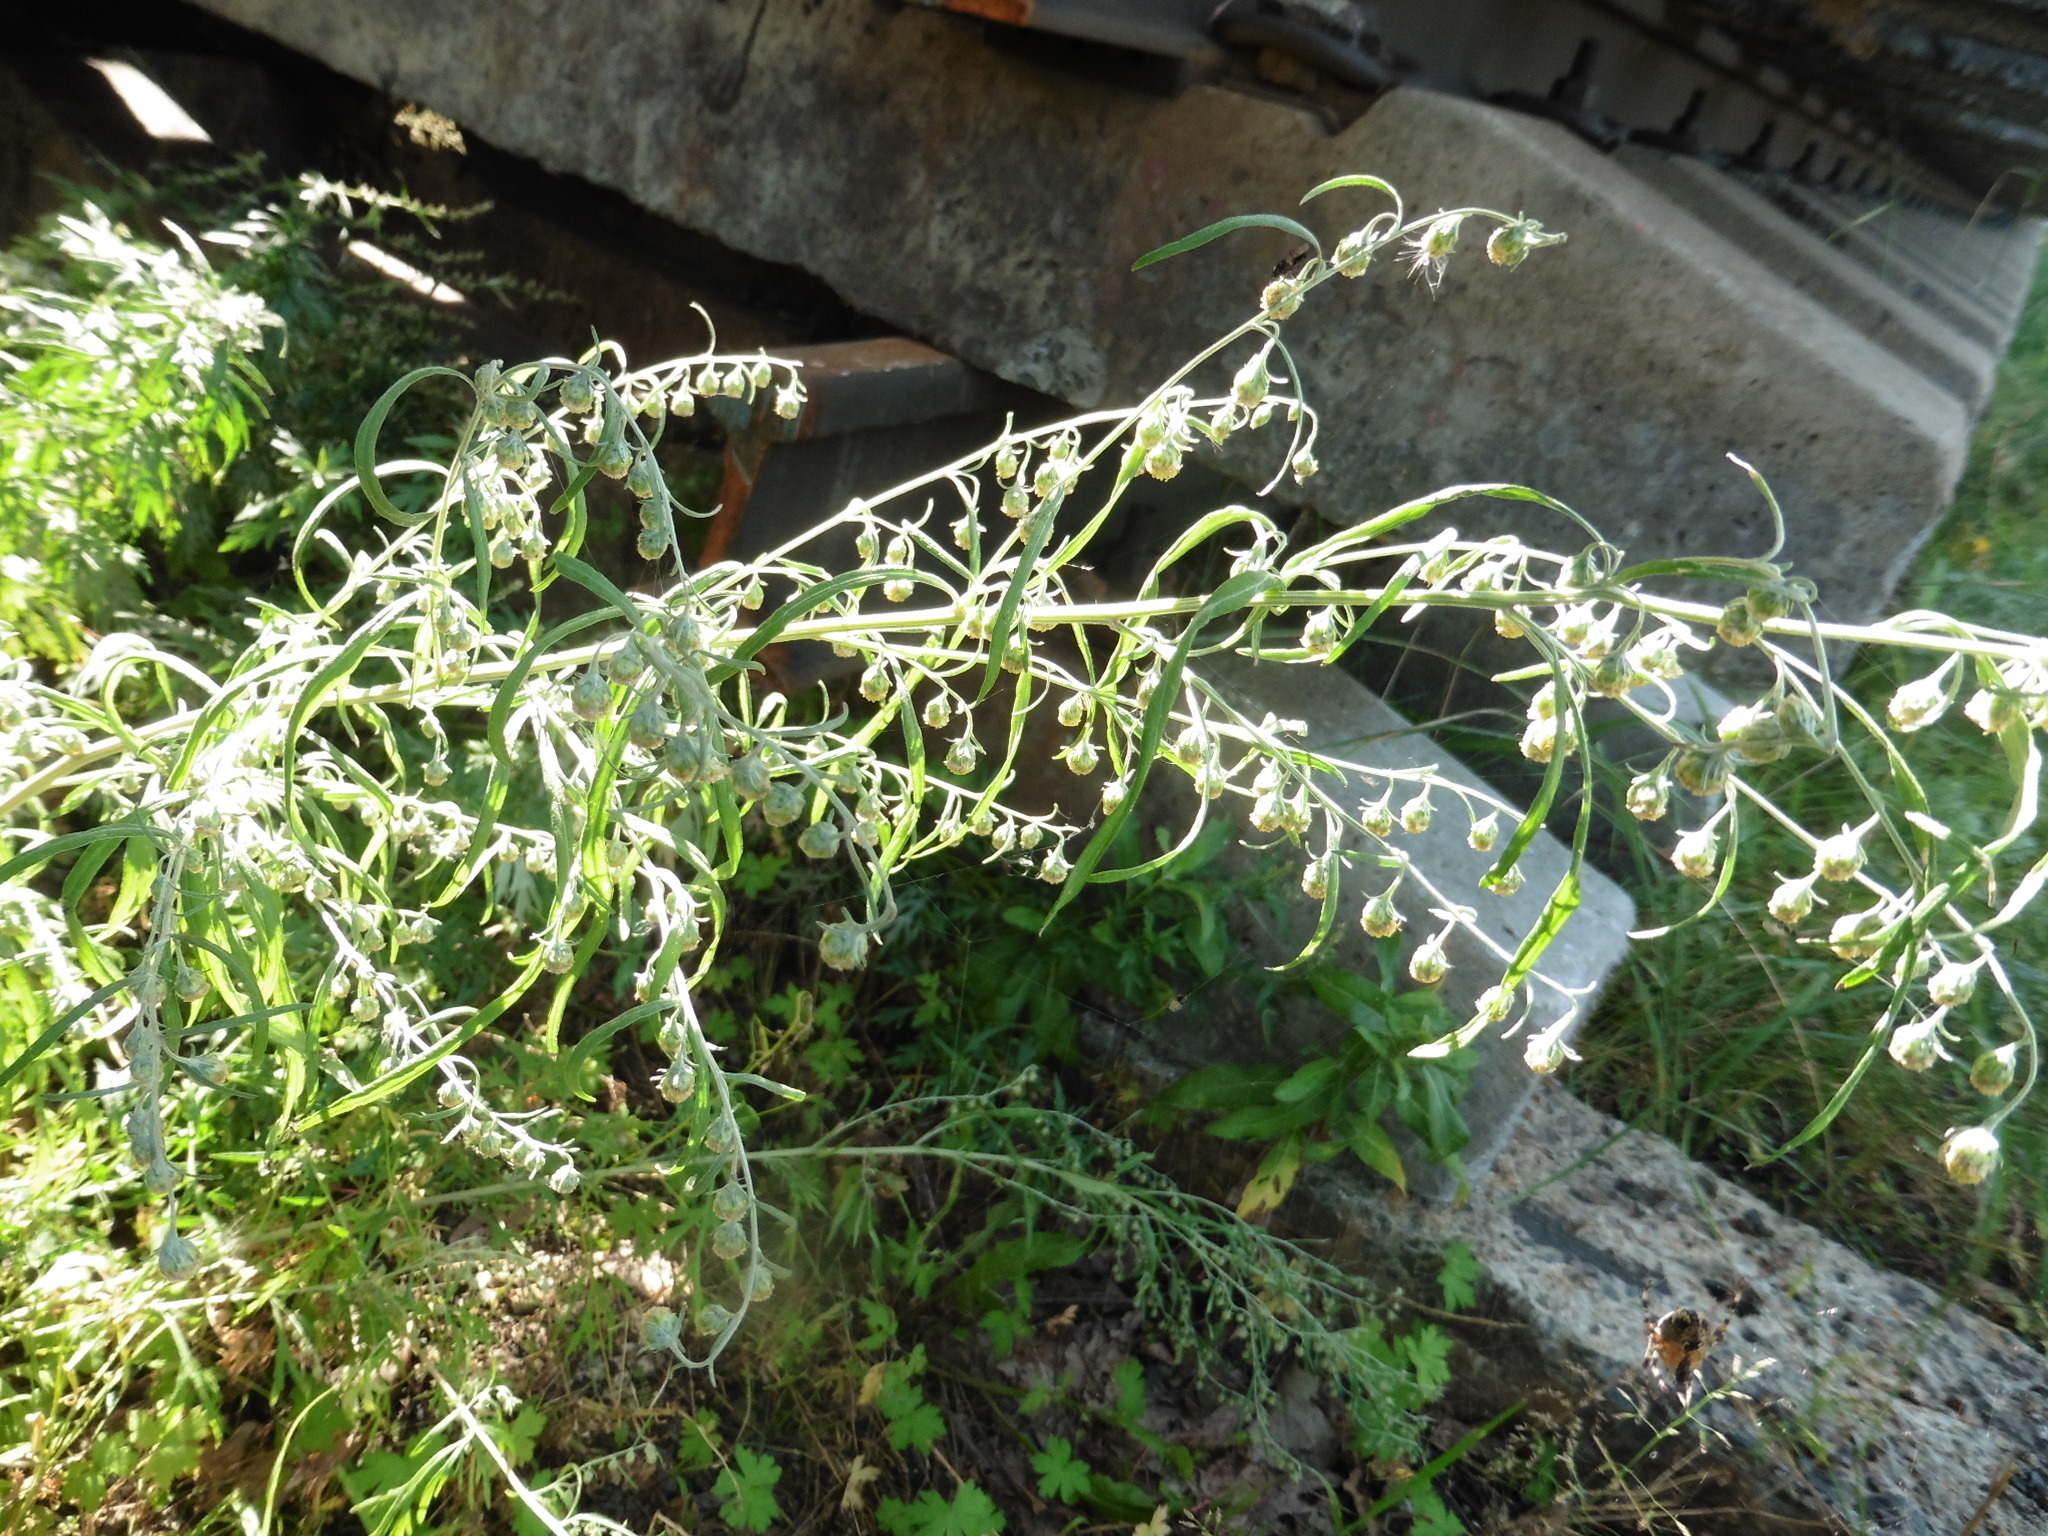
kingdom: Plantae
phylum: Tracheophyta
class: Magnoliopsida
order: Asterales
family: Asteraceae
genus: Artemisia
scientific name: Artemisia sieversiana
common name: Sieversian wormwood
